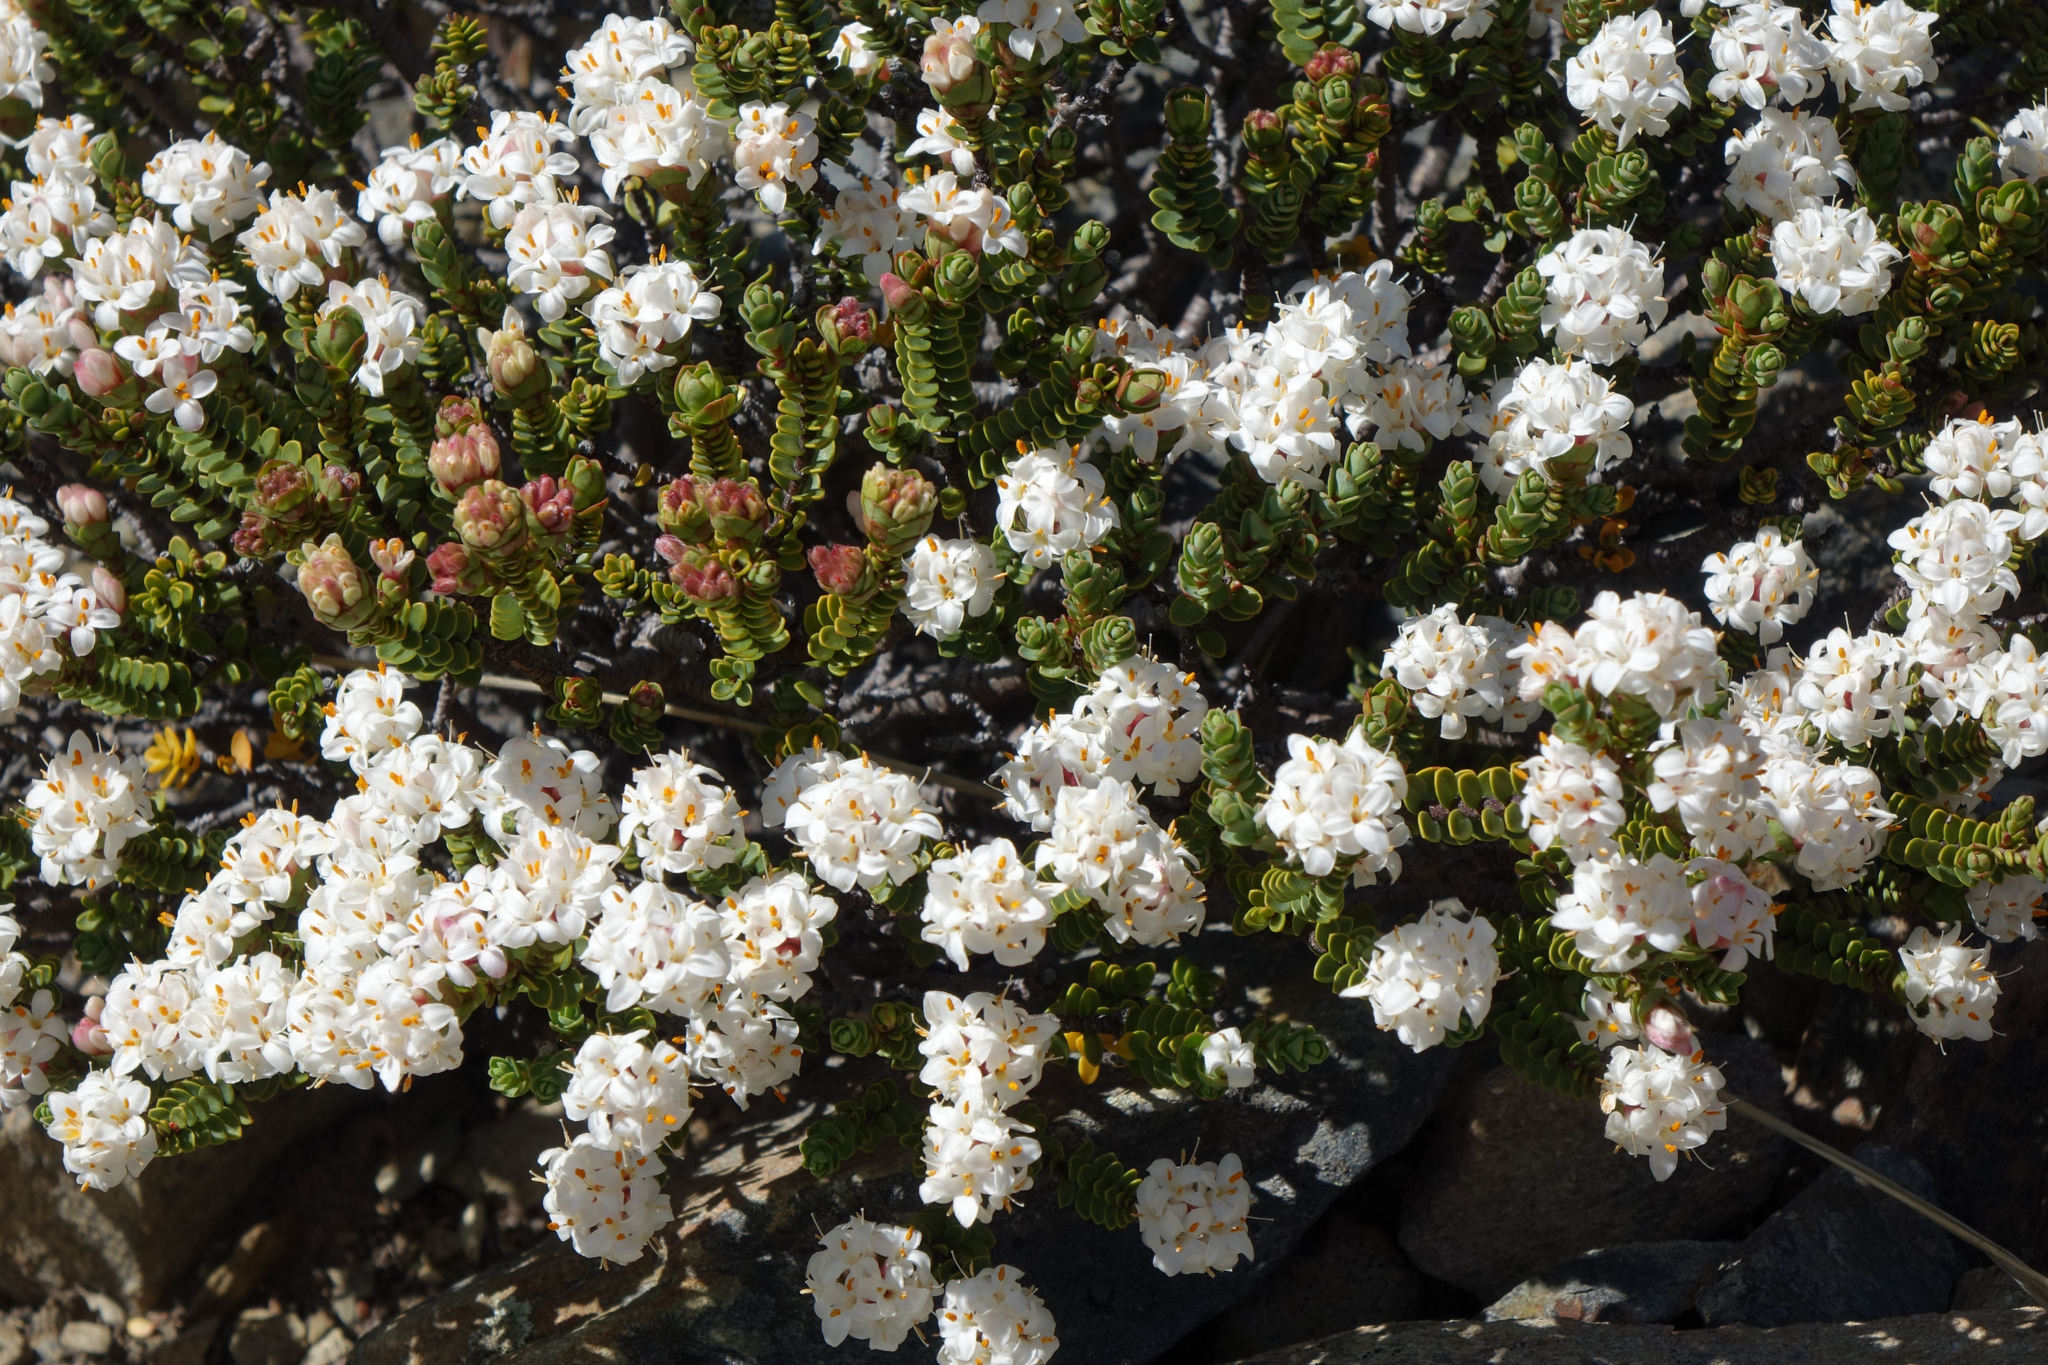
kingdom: Plantae
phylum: Tracheophyta
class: Magnoliopsida
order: Malvales
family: Thymelaeaceae
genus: Pimelea
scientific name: Pimelea traversii
